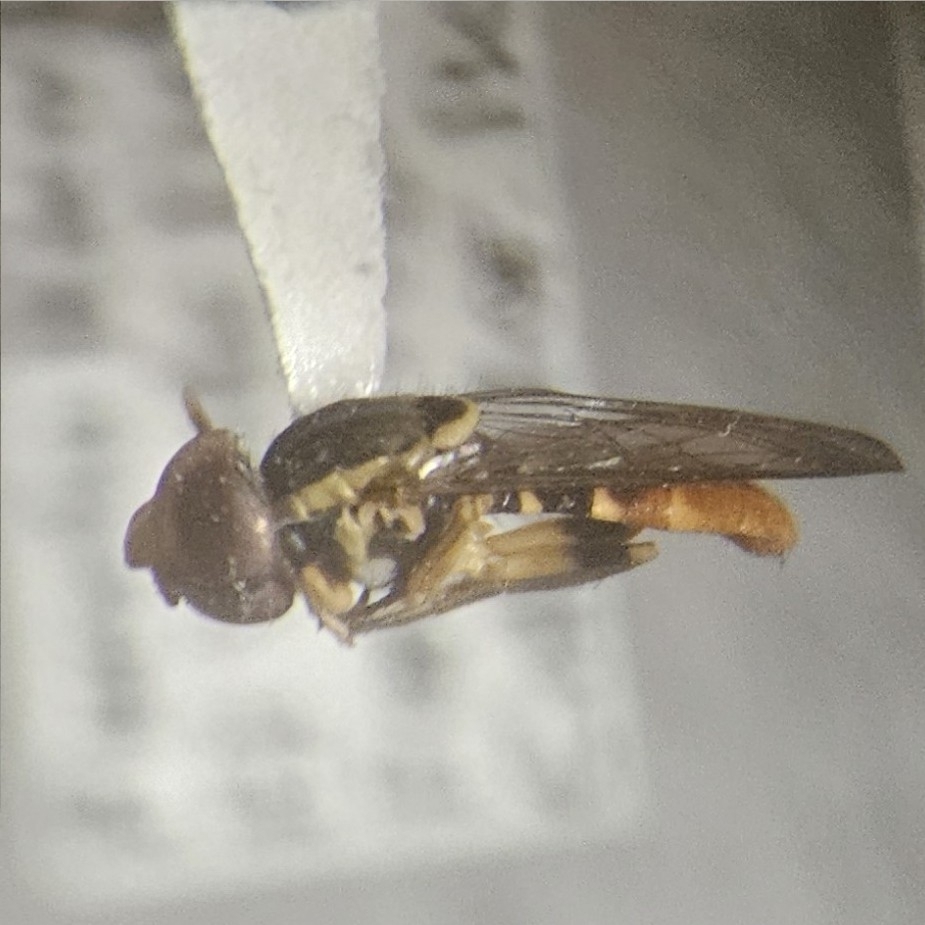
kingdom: Animalia
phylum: Arthropoda
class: Insecta
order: Diptera
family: Syrphidae
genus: Toxomerus
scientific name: Toxomerus arcifer
